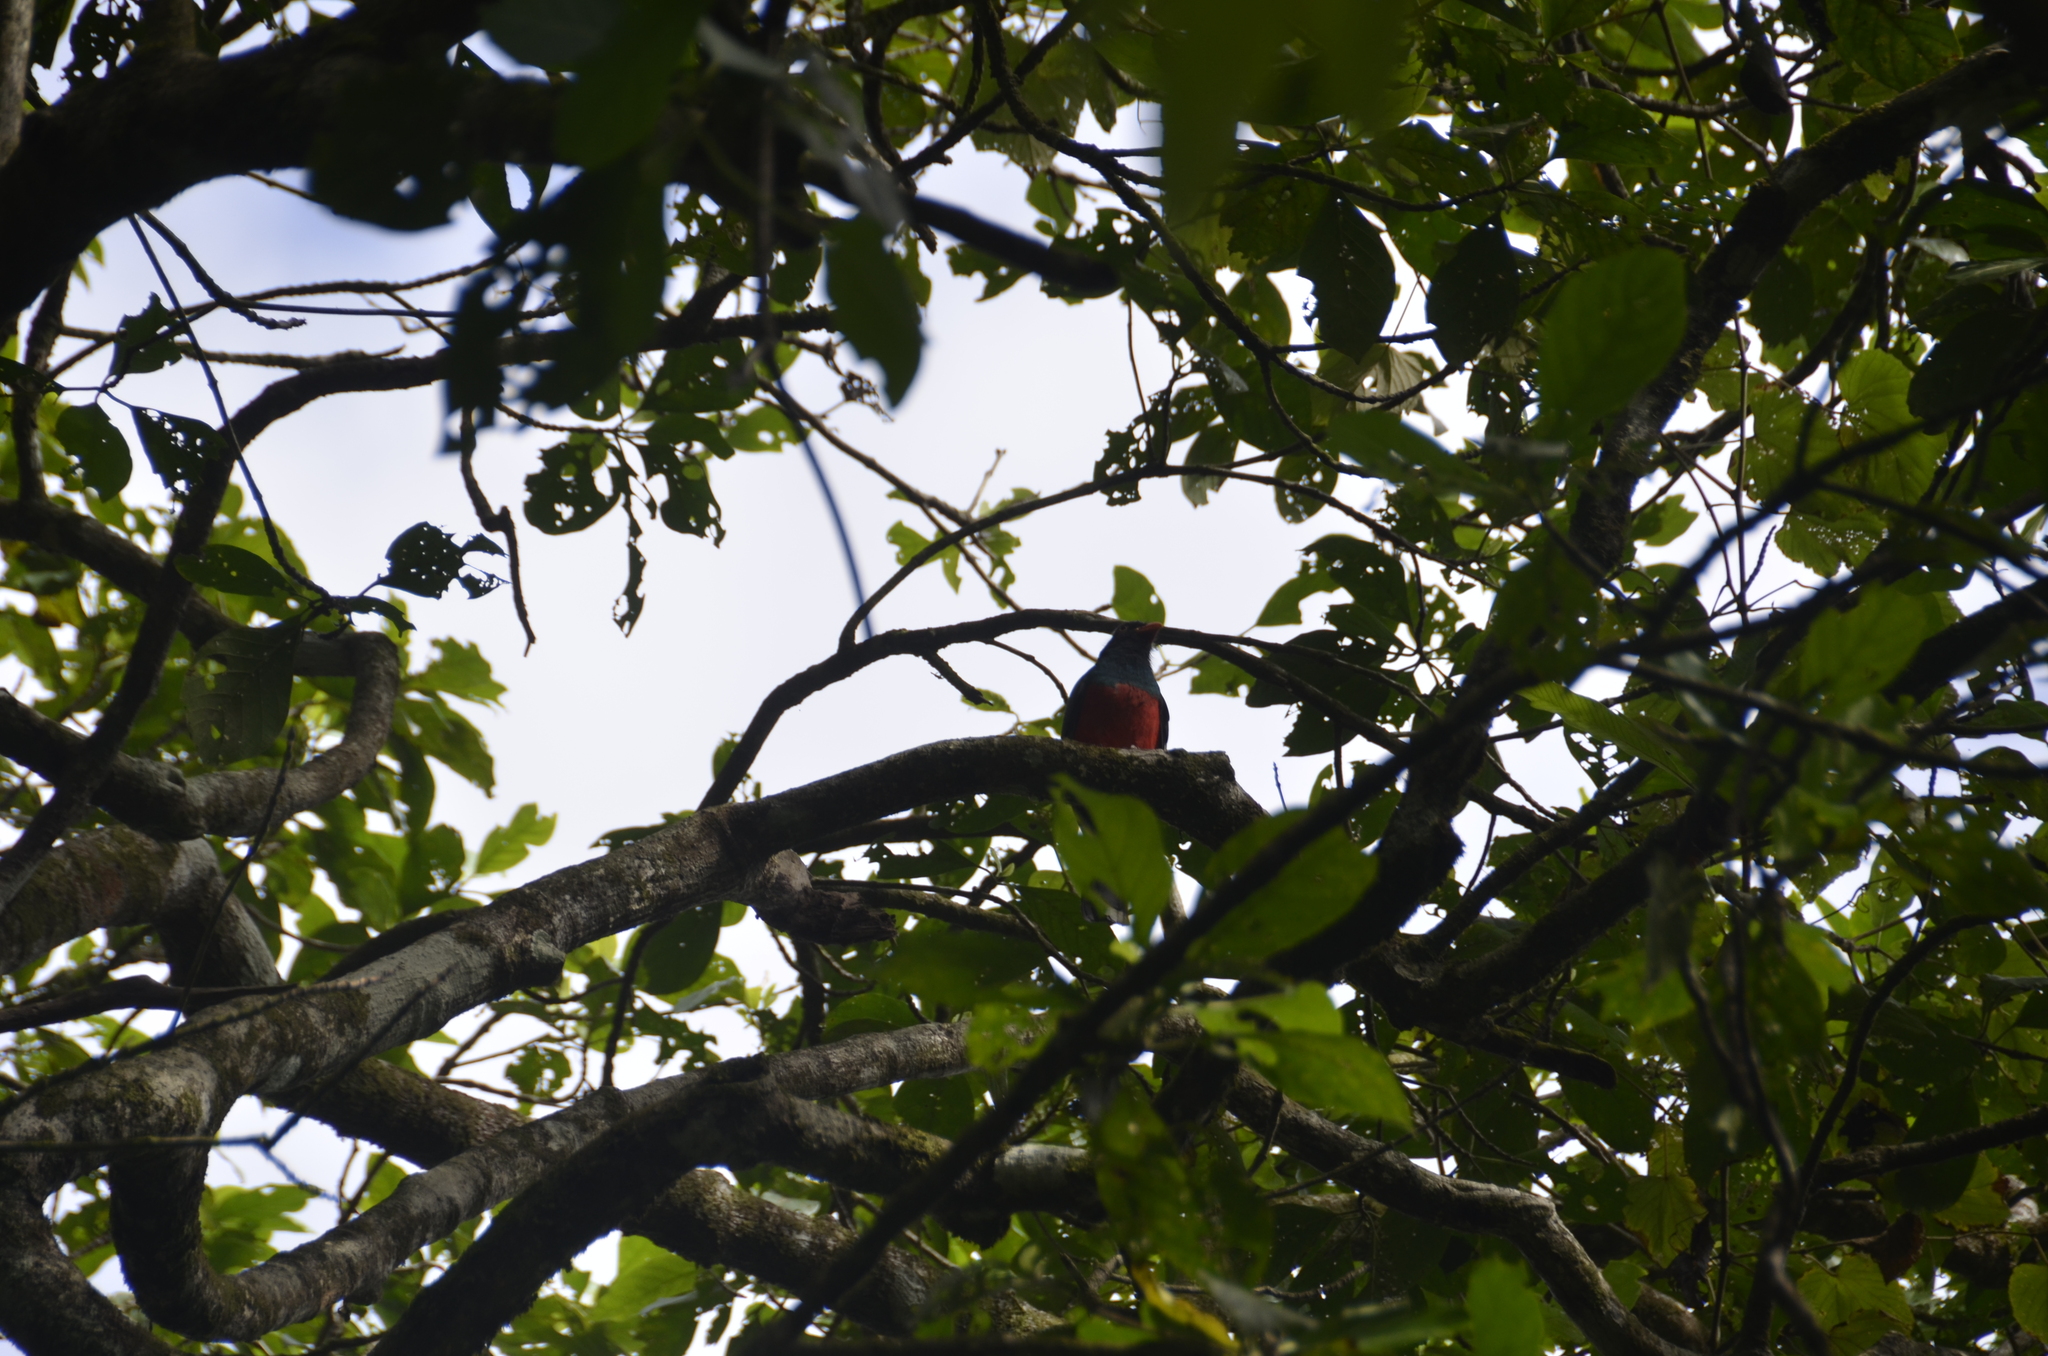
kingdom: Animalia
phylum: Chordata
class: Aves
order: Trogoniformes
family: Trogonidae
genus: Trogon
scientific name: Trogon massena
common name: Slaty-tailed trogon
